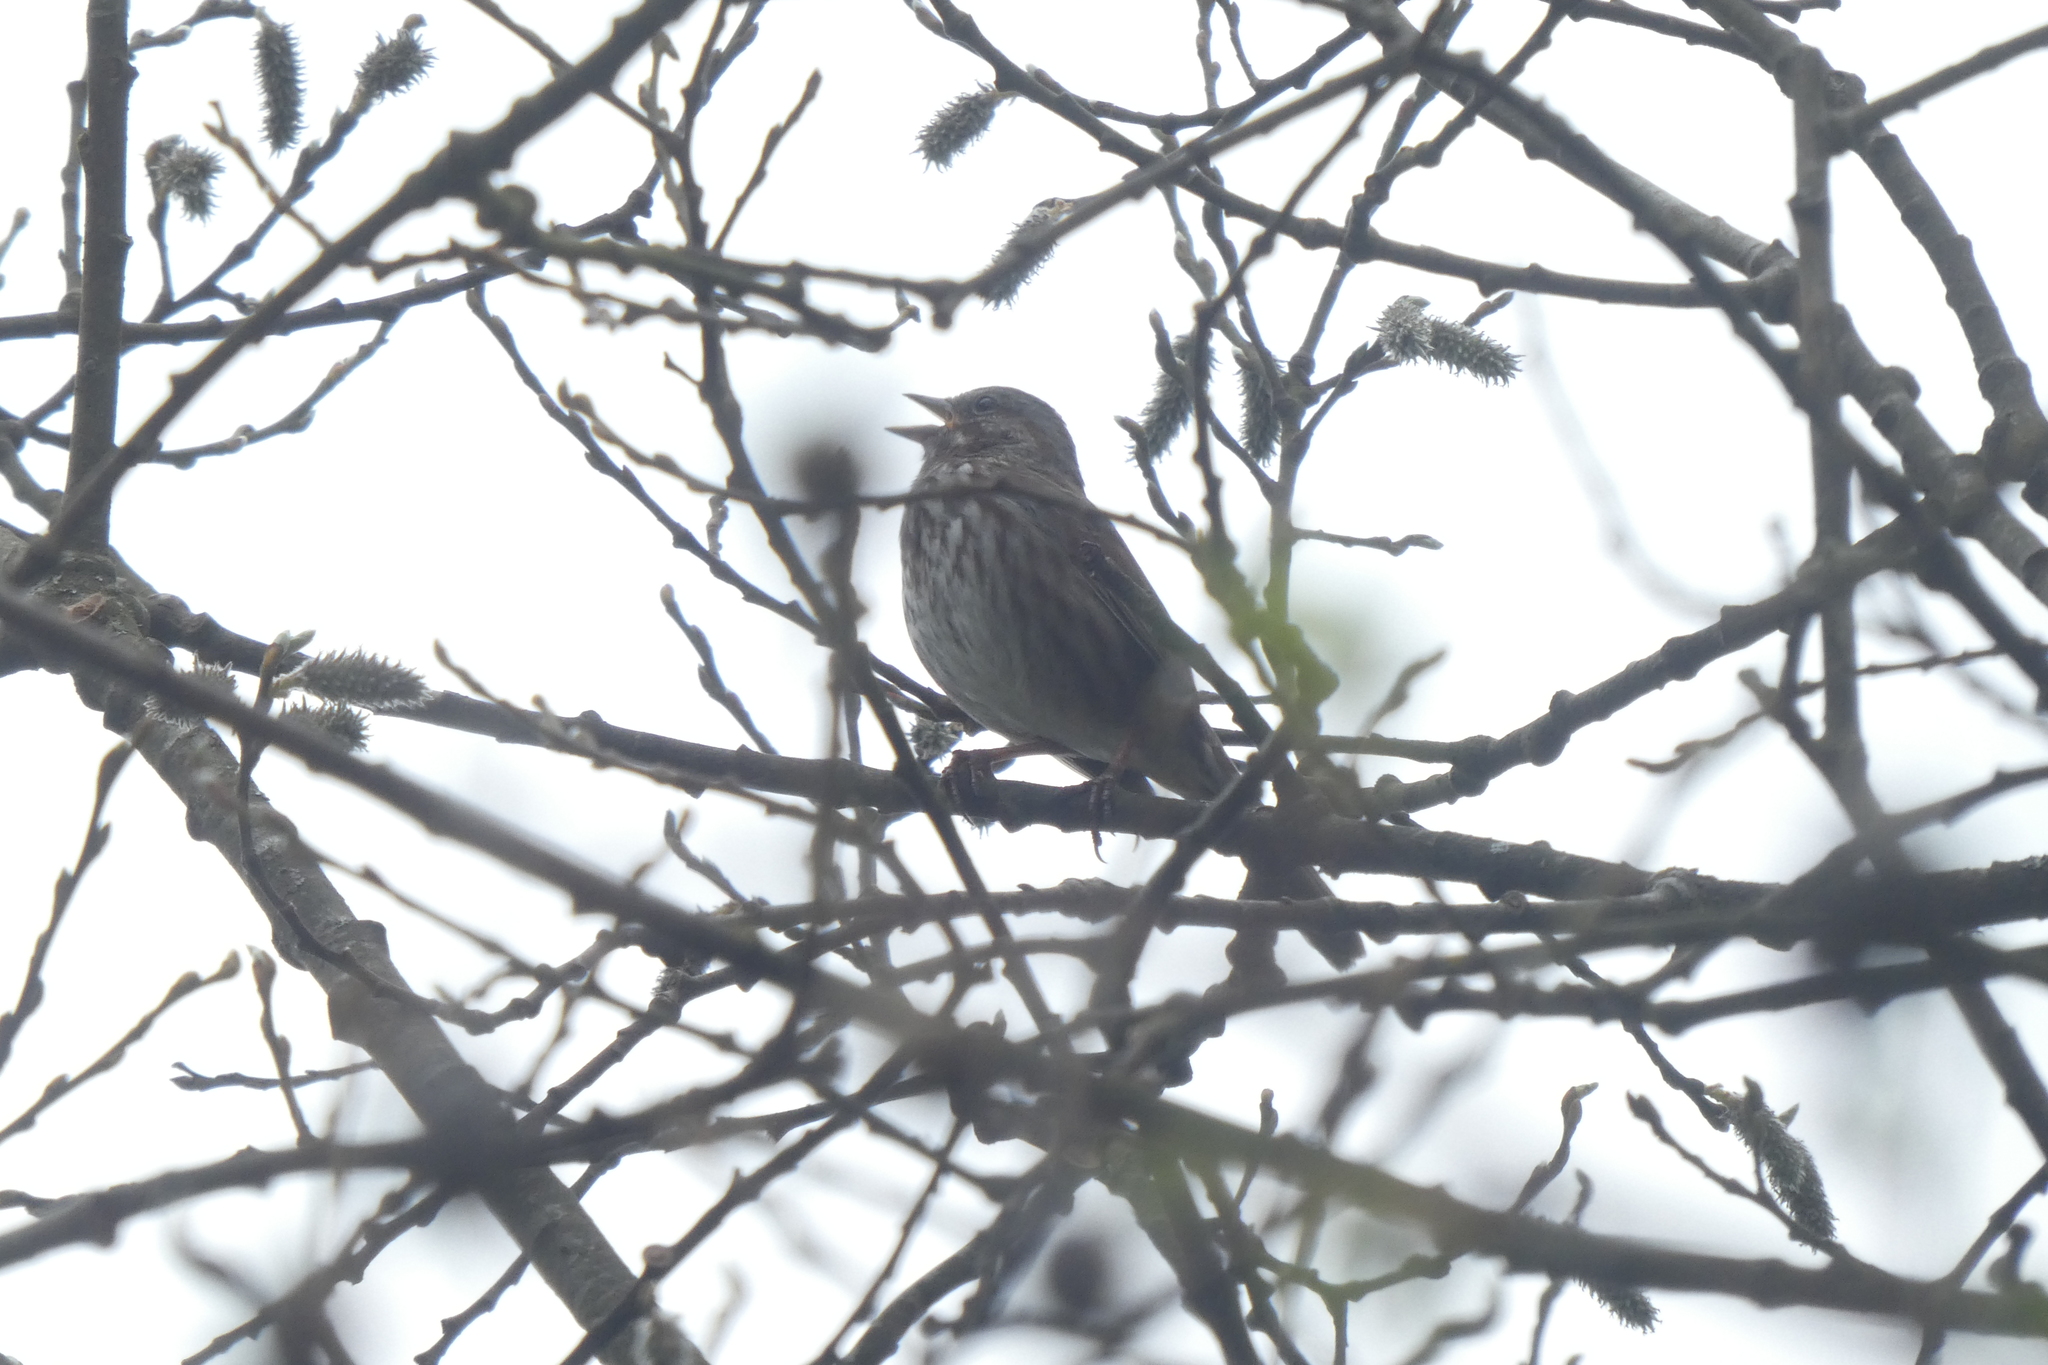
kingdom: Animalia
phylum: Chordata
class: Aves
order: Passeriformes
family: Passerellidae
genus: Melospiza
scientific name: Melospiza melodia
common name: Song sparrow
